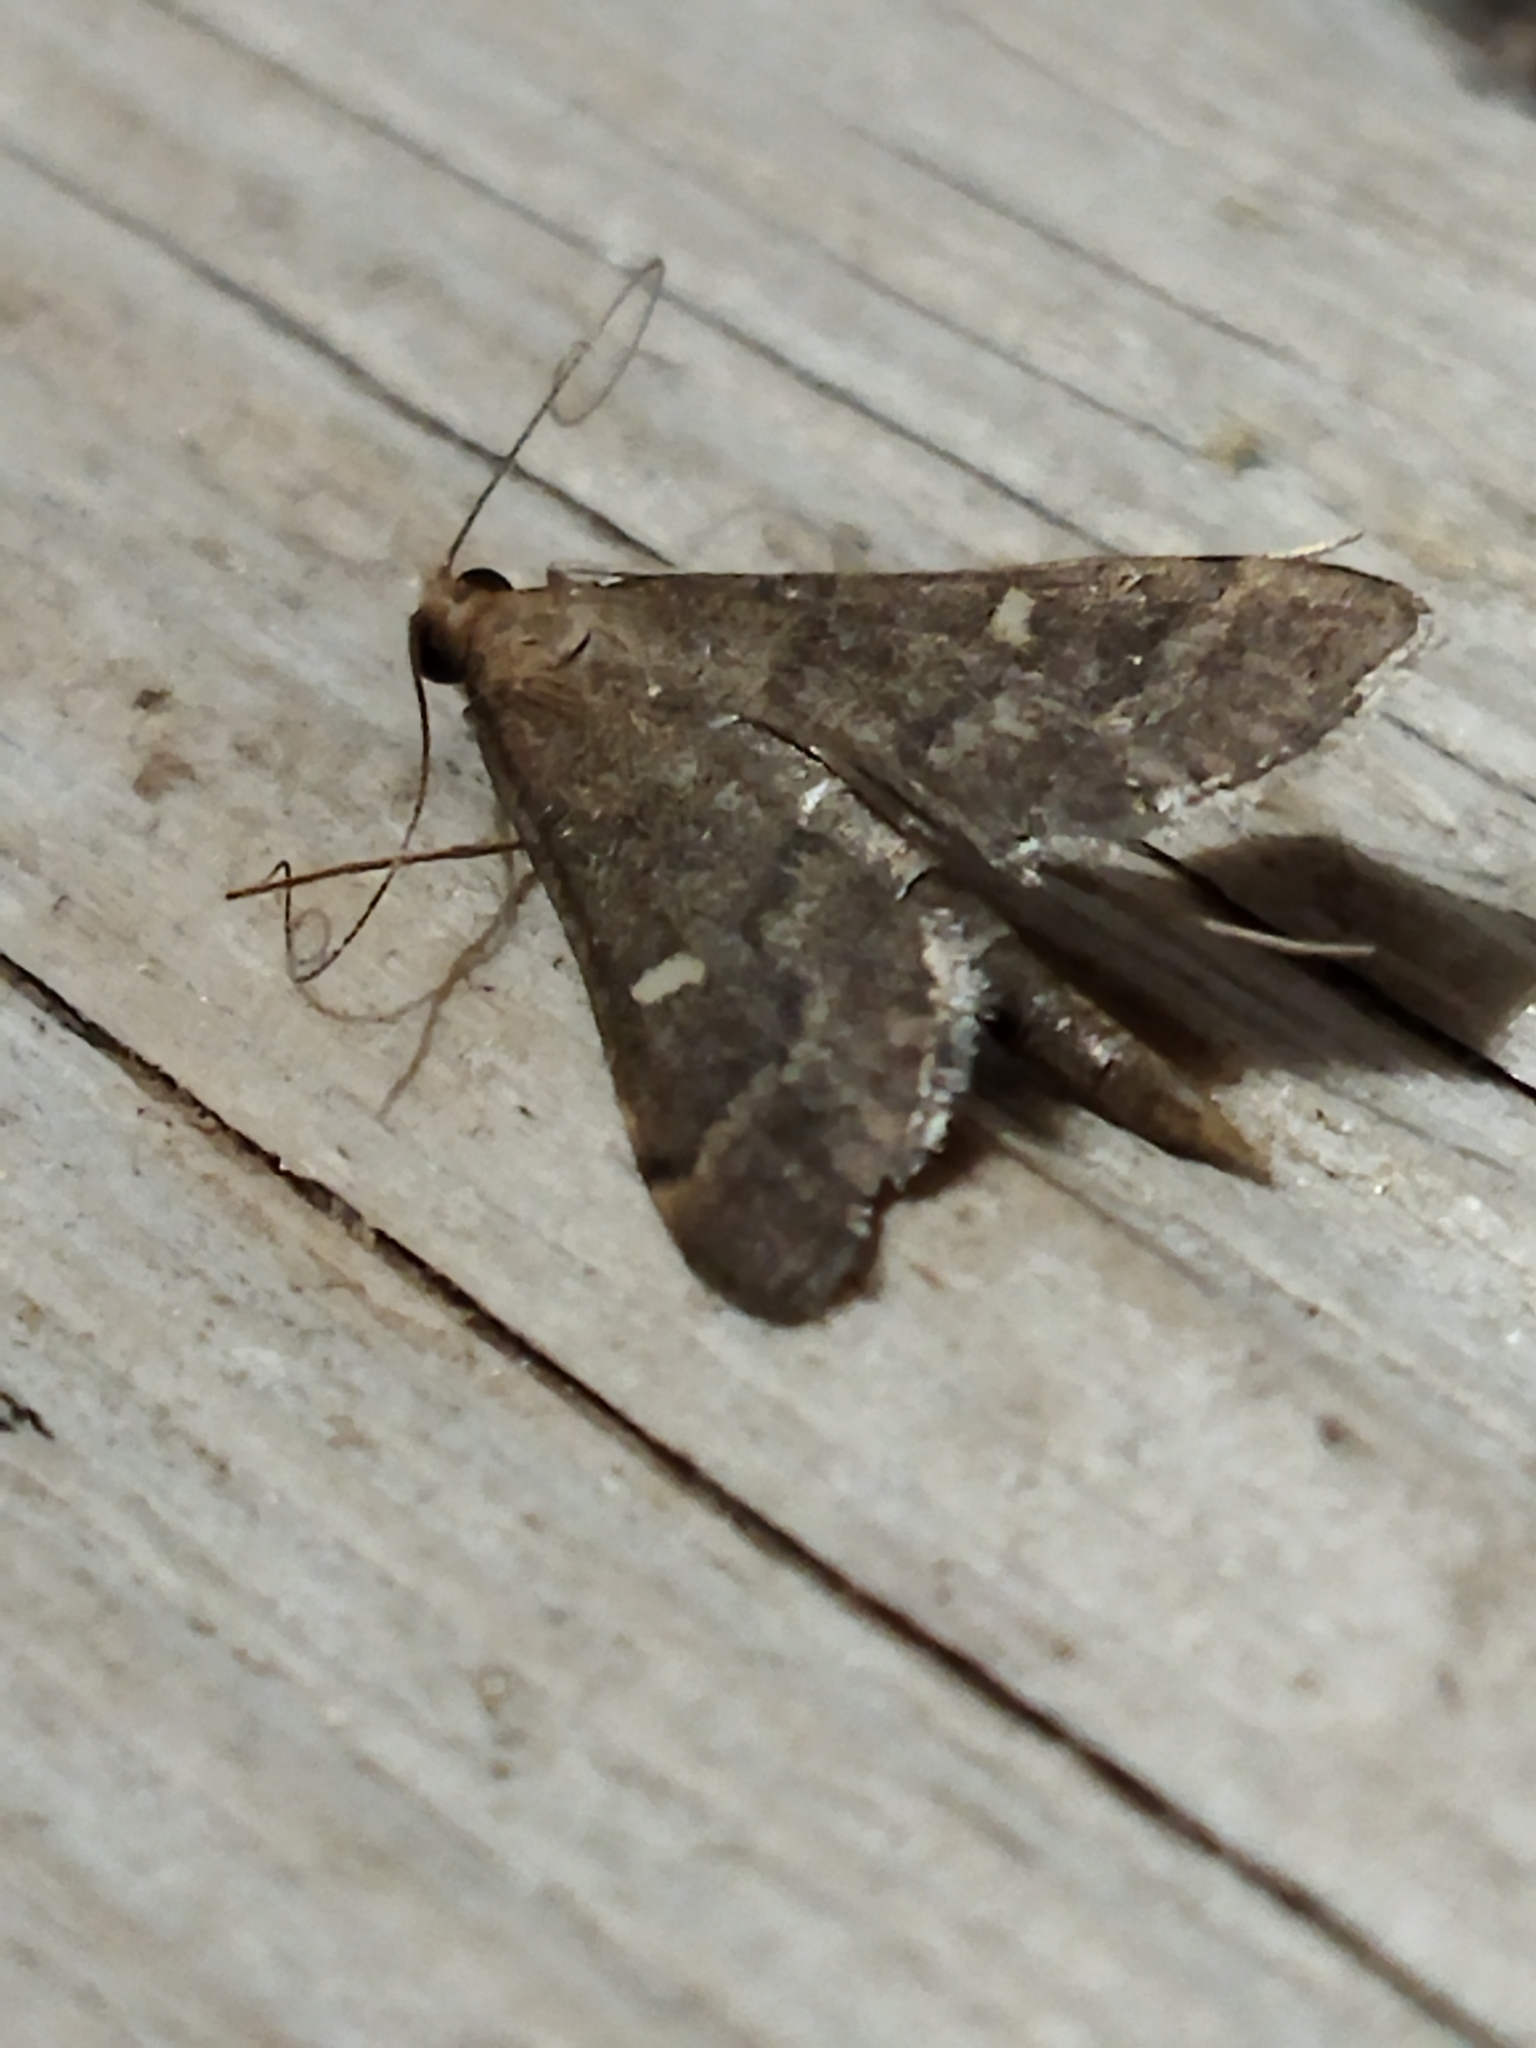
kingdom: Animalia
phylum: Arthropoda
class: Insecta
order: Lepidoptera
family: Crambidae
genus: Stenia
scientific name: Stenia Dolicharthria punctalis
